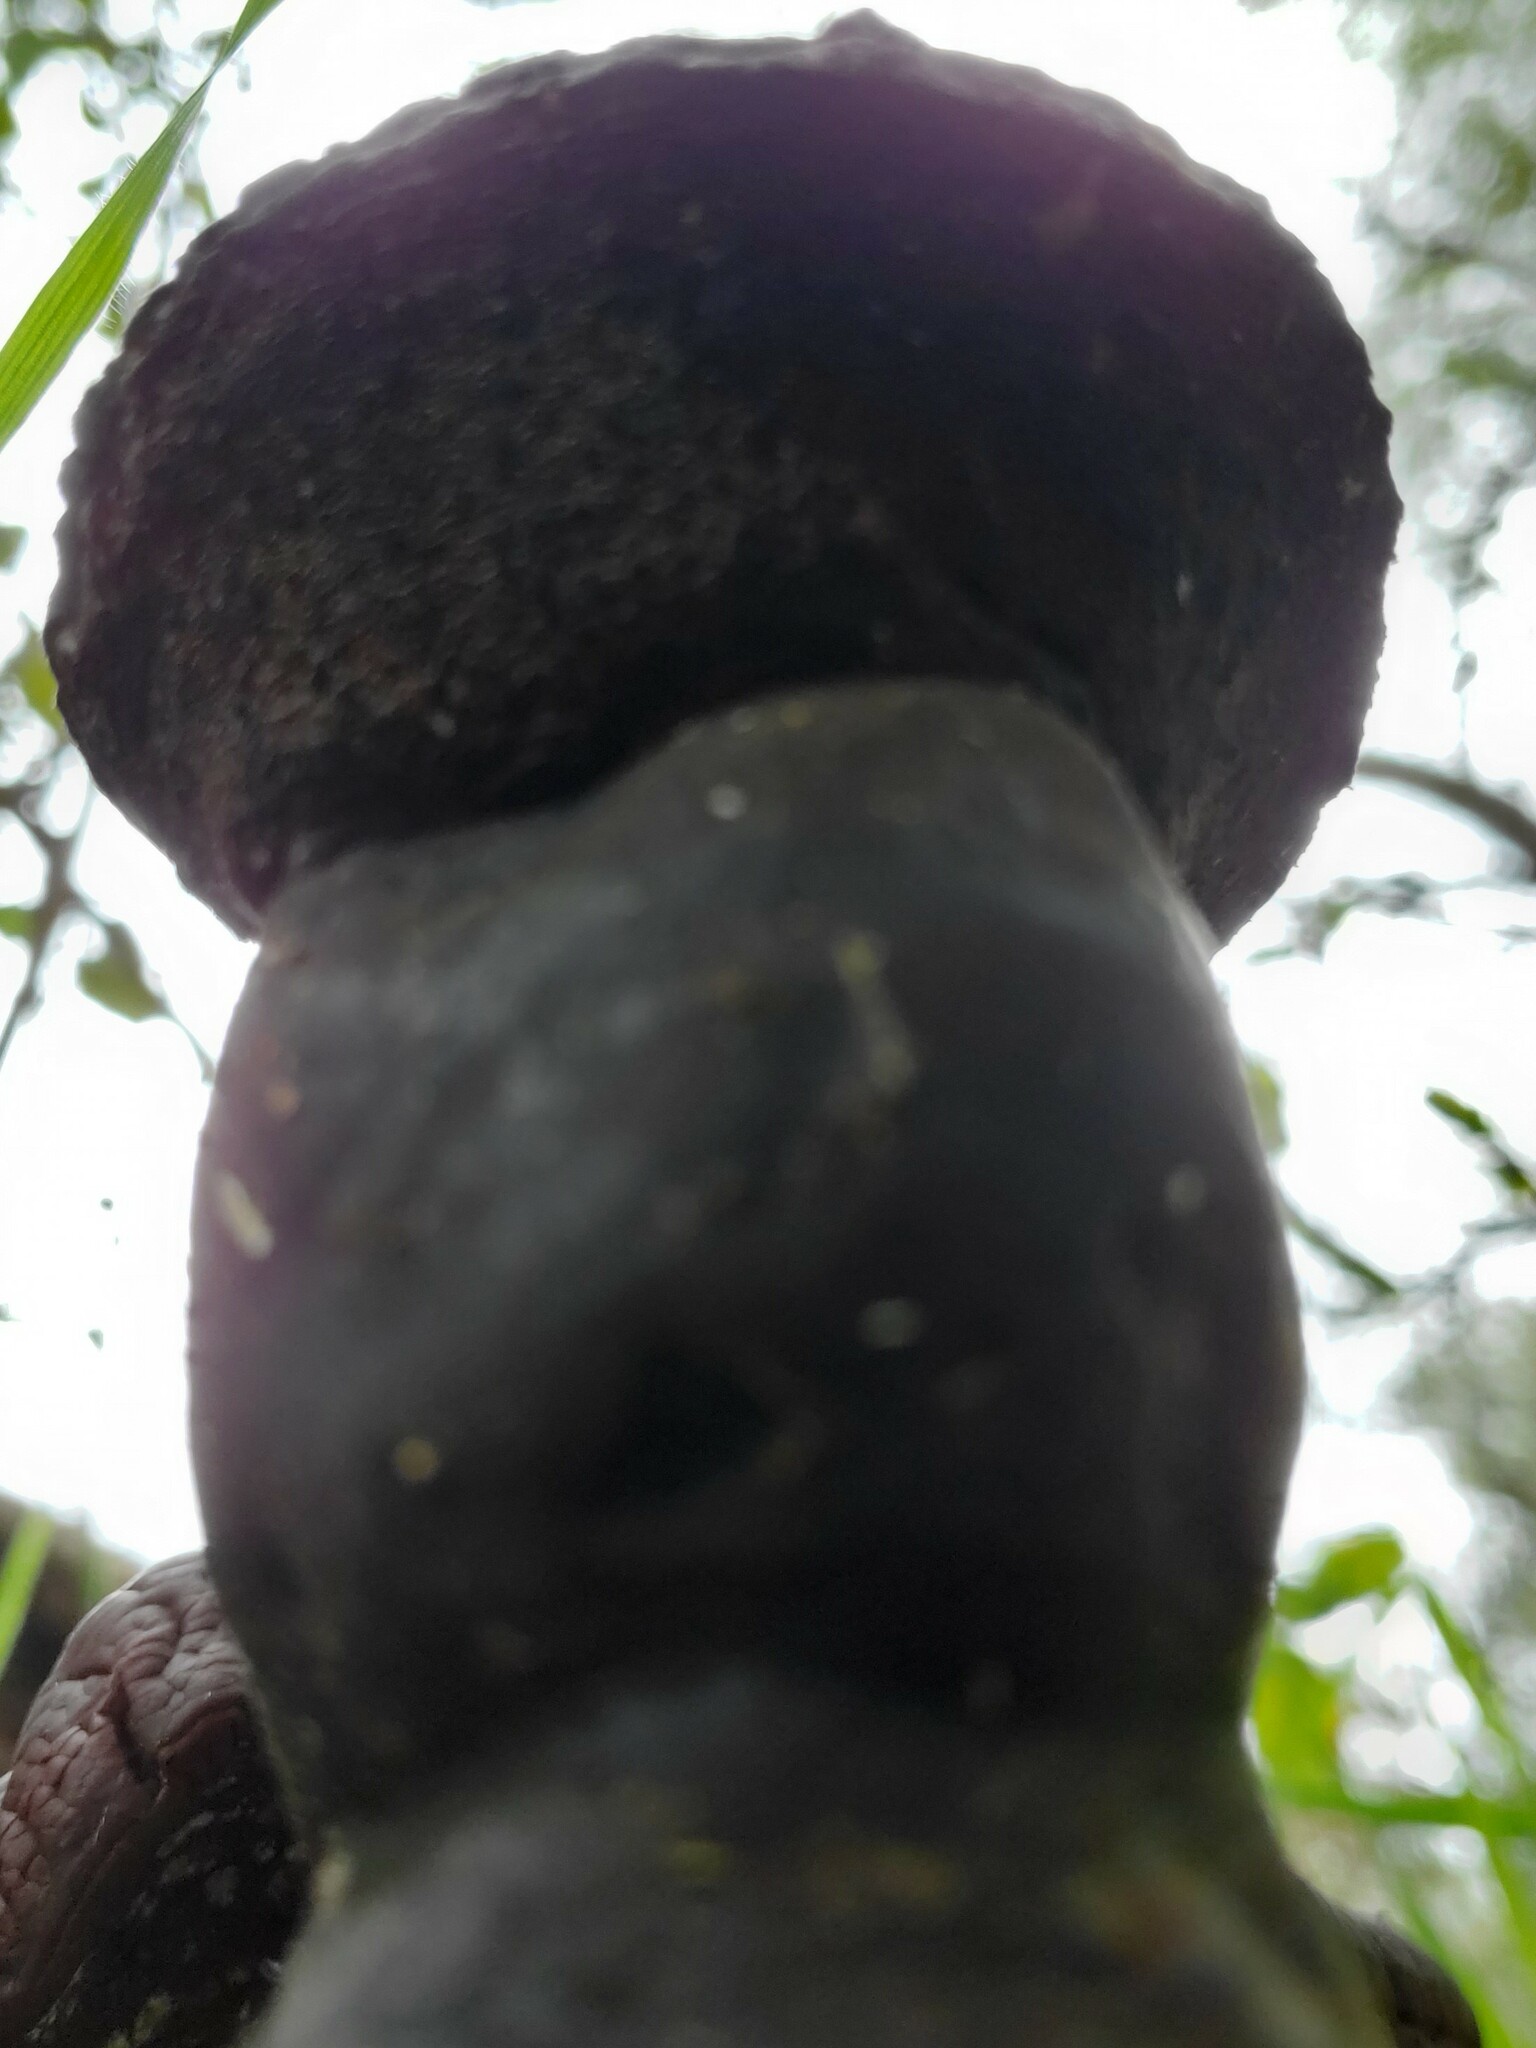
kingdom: Fungi
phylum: Basidiomycota
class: Agaricomycetes
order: Polyporales
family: Polyporaceae
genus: Ganoderma
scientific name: Ganoderma oregonense
